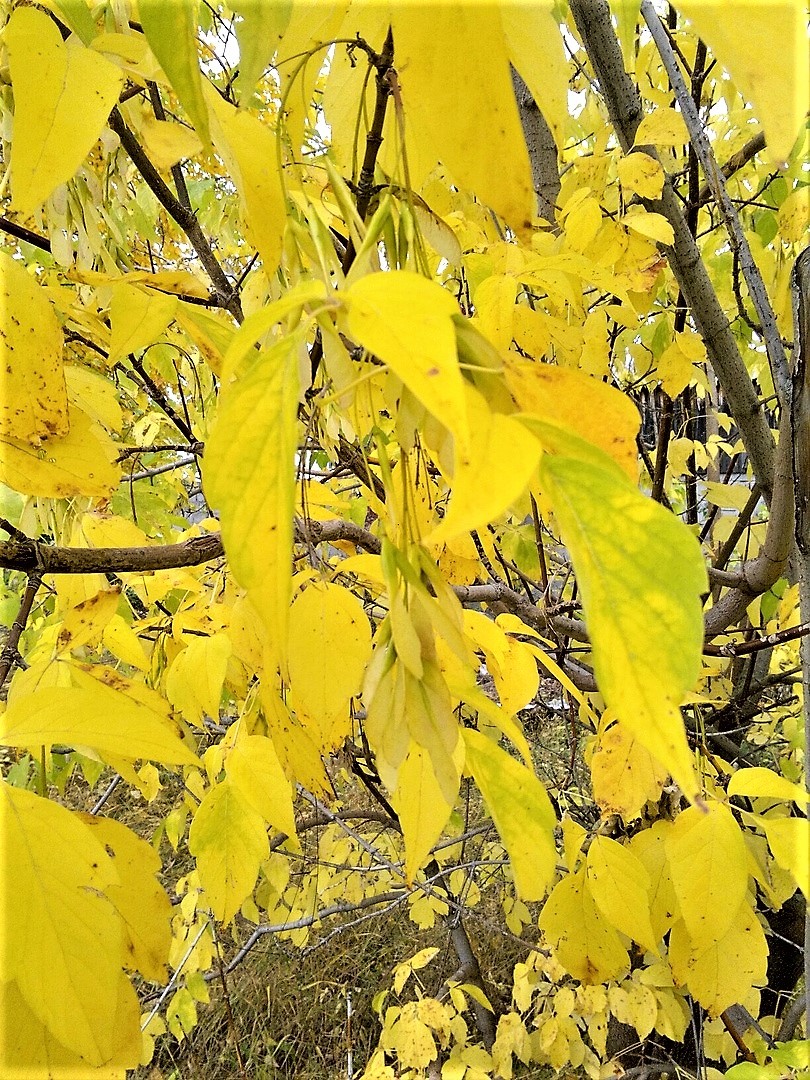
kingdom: Plantae
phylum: Tracheophyta
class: Magnoliopsida
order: Sapindales
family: Sapindaceae
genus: Acer
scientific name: Acer negundo
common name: Ashleaf maple
